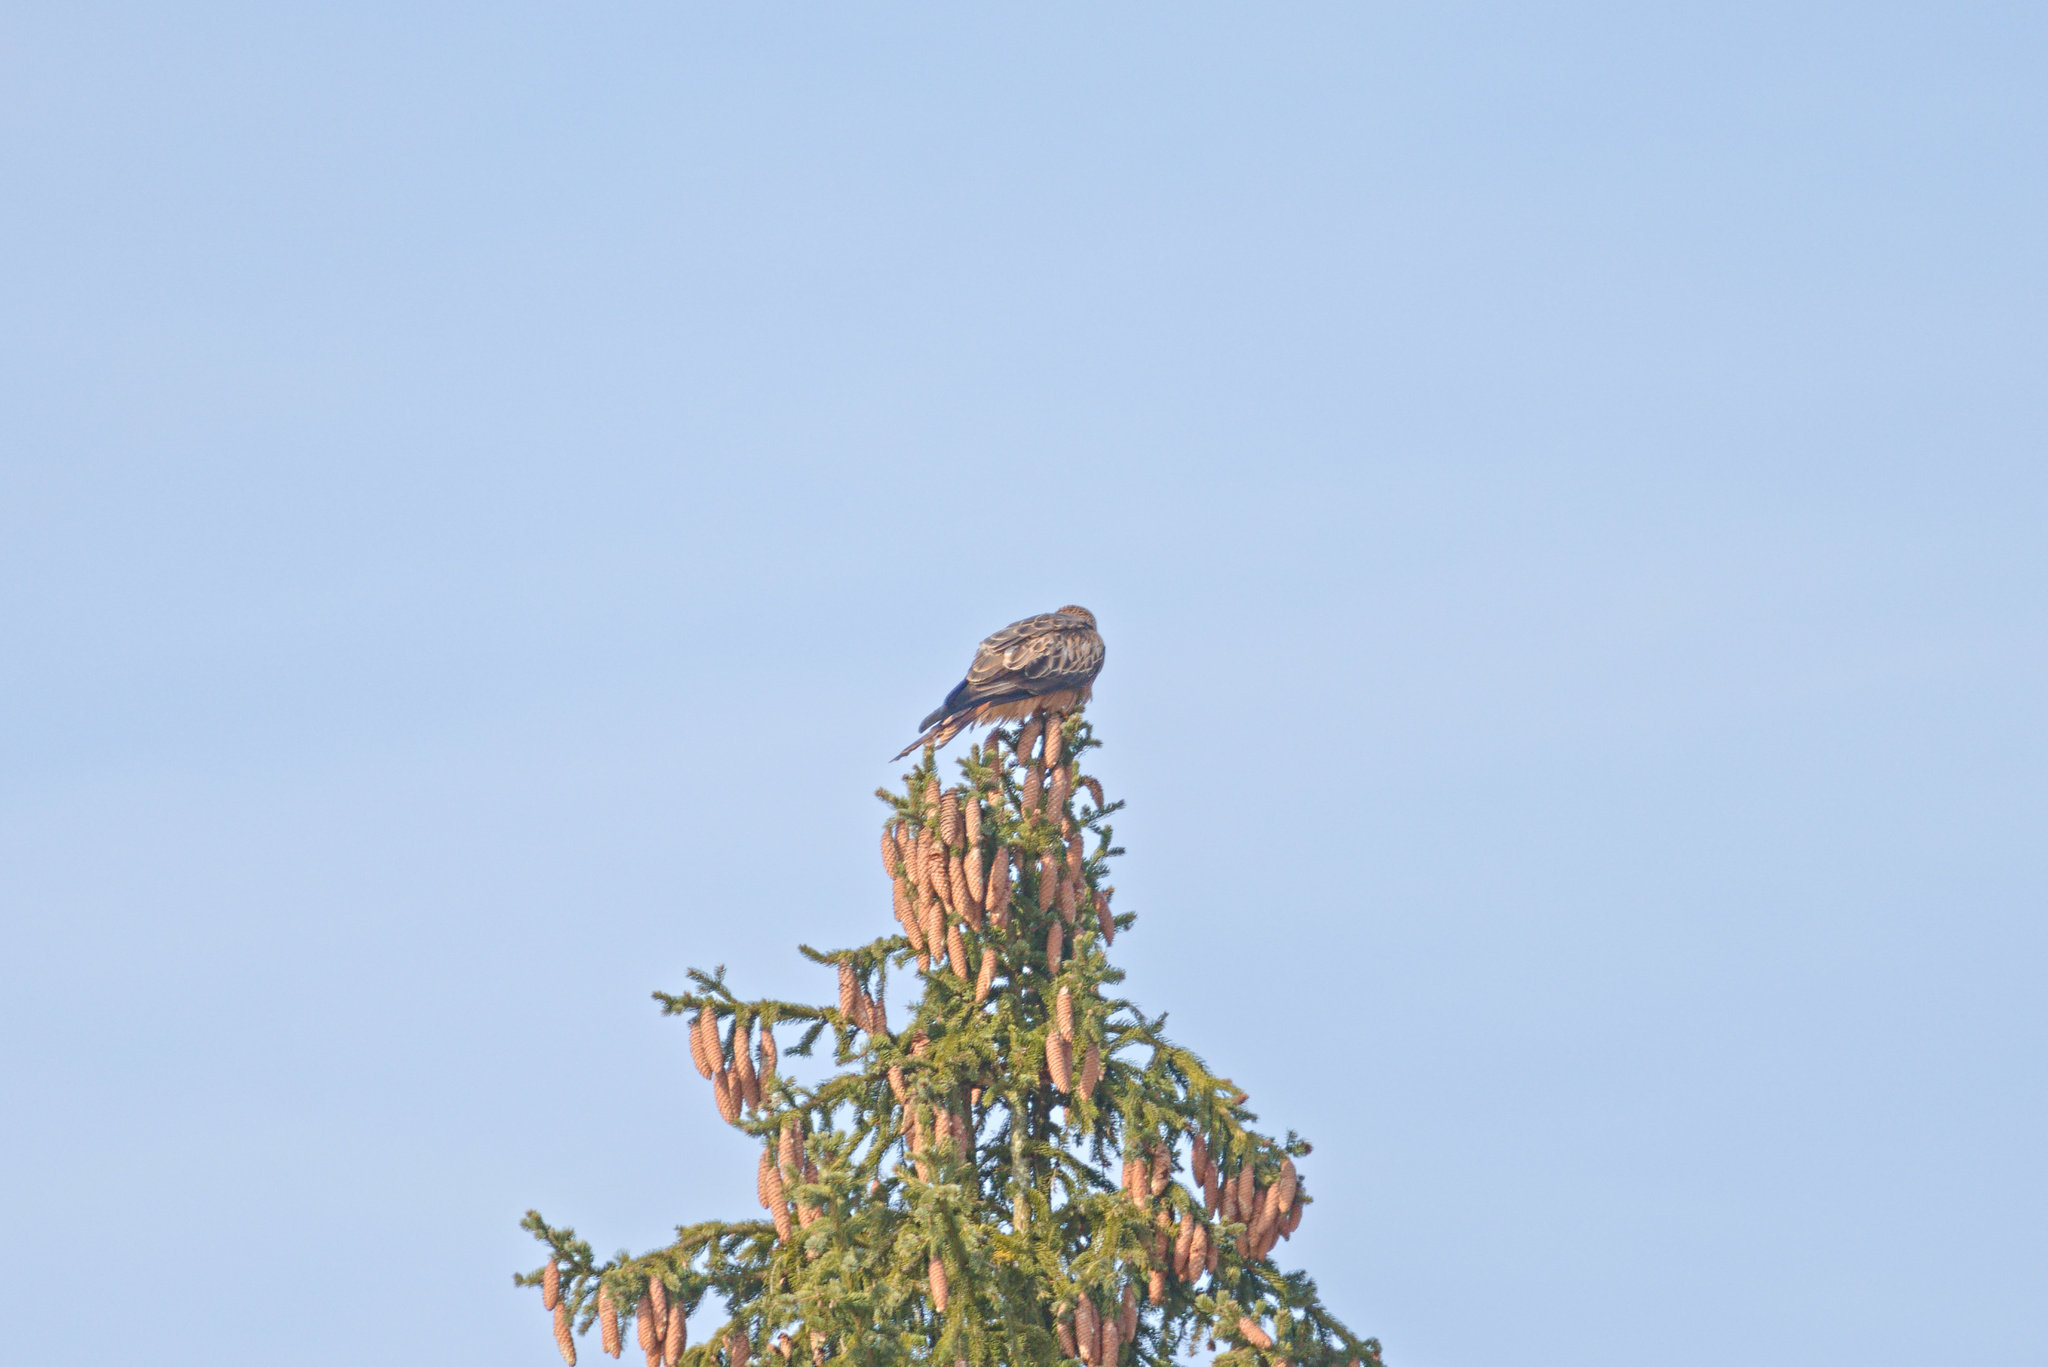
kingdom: Animalia
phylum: Chordata
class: Aves
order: Accipitriformes
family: Accipitridae
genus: Milvus
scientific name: Milvus milvus
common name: Red kite
